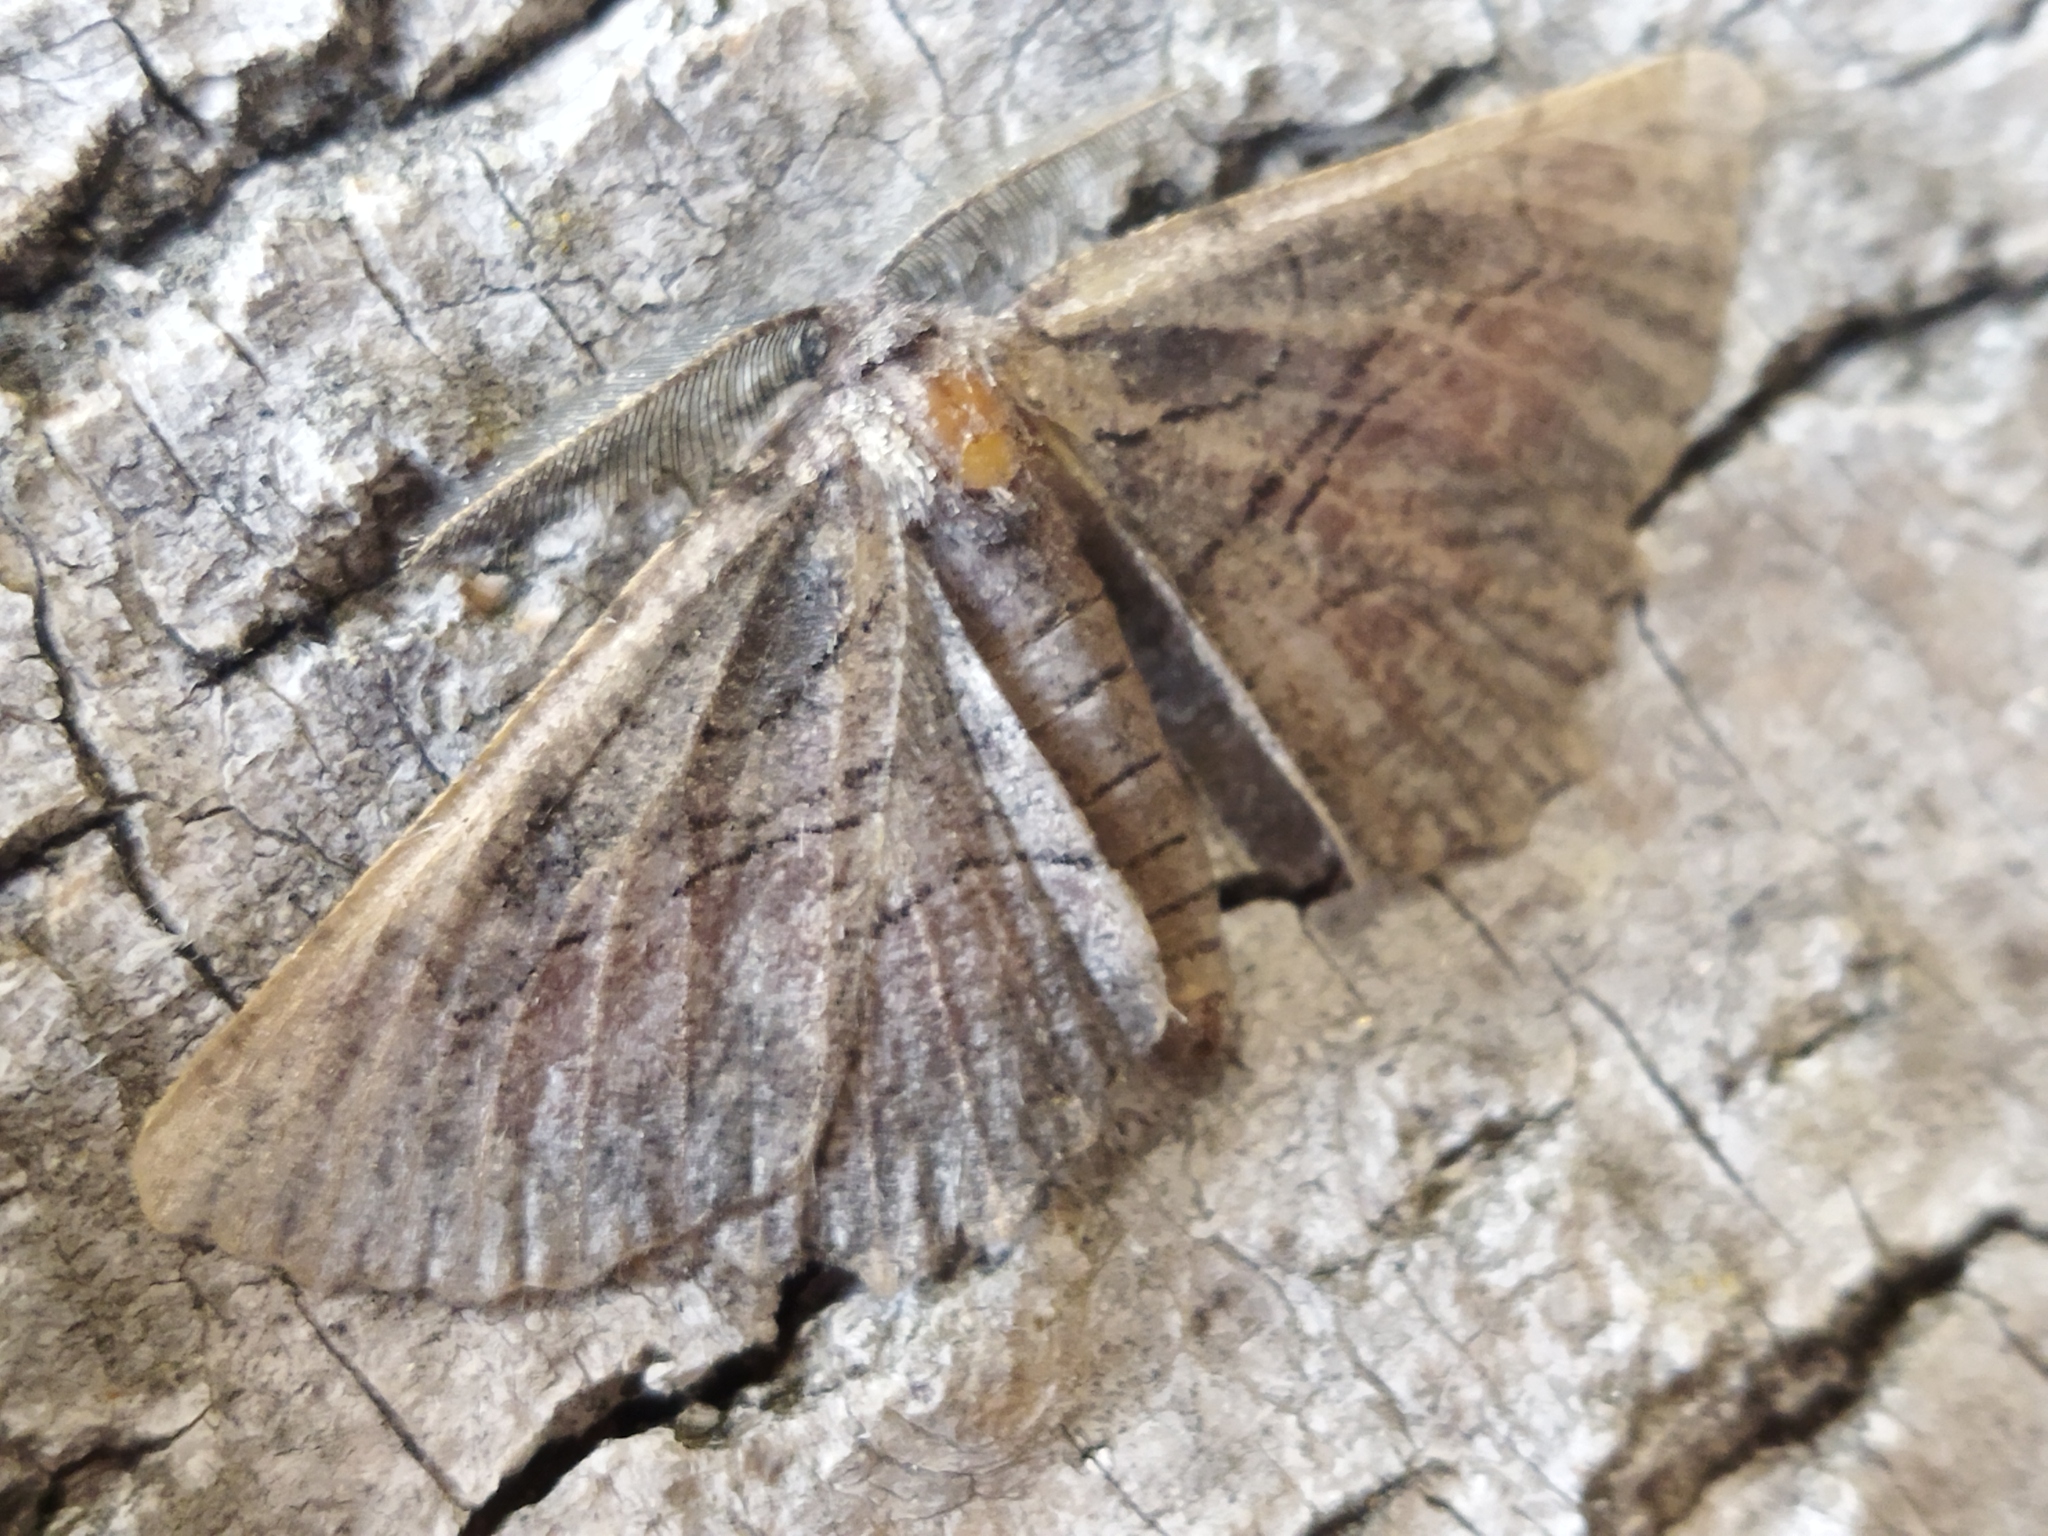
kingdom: Animalia
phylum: Arthropoda
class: Insecta
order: Lepidoptera
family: Geometridae
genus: Nychiodes
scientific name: Nychiodes waltheri
